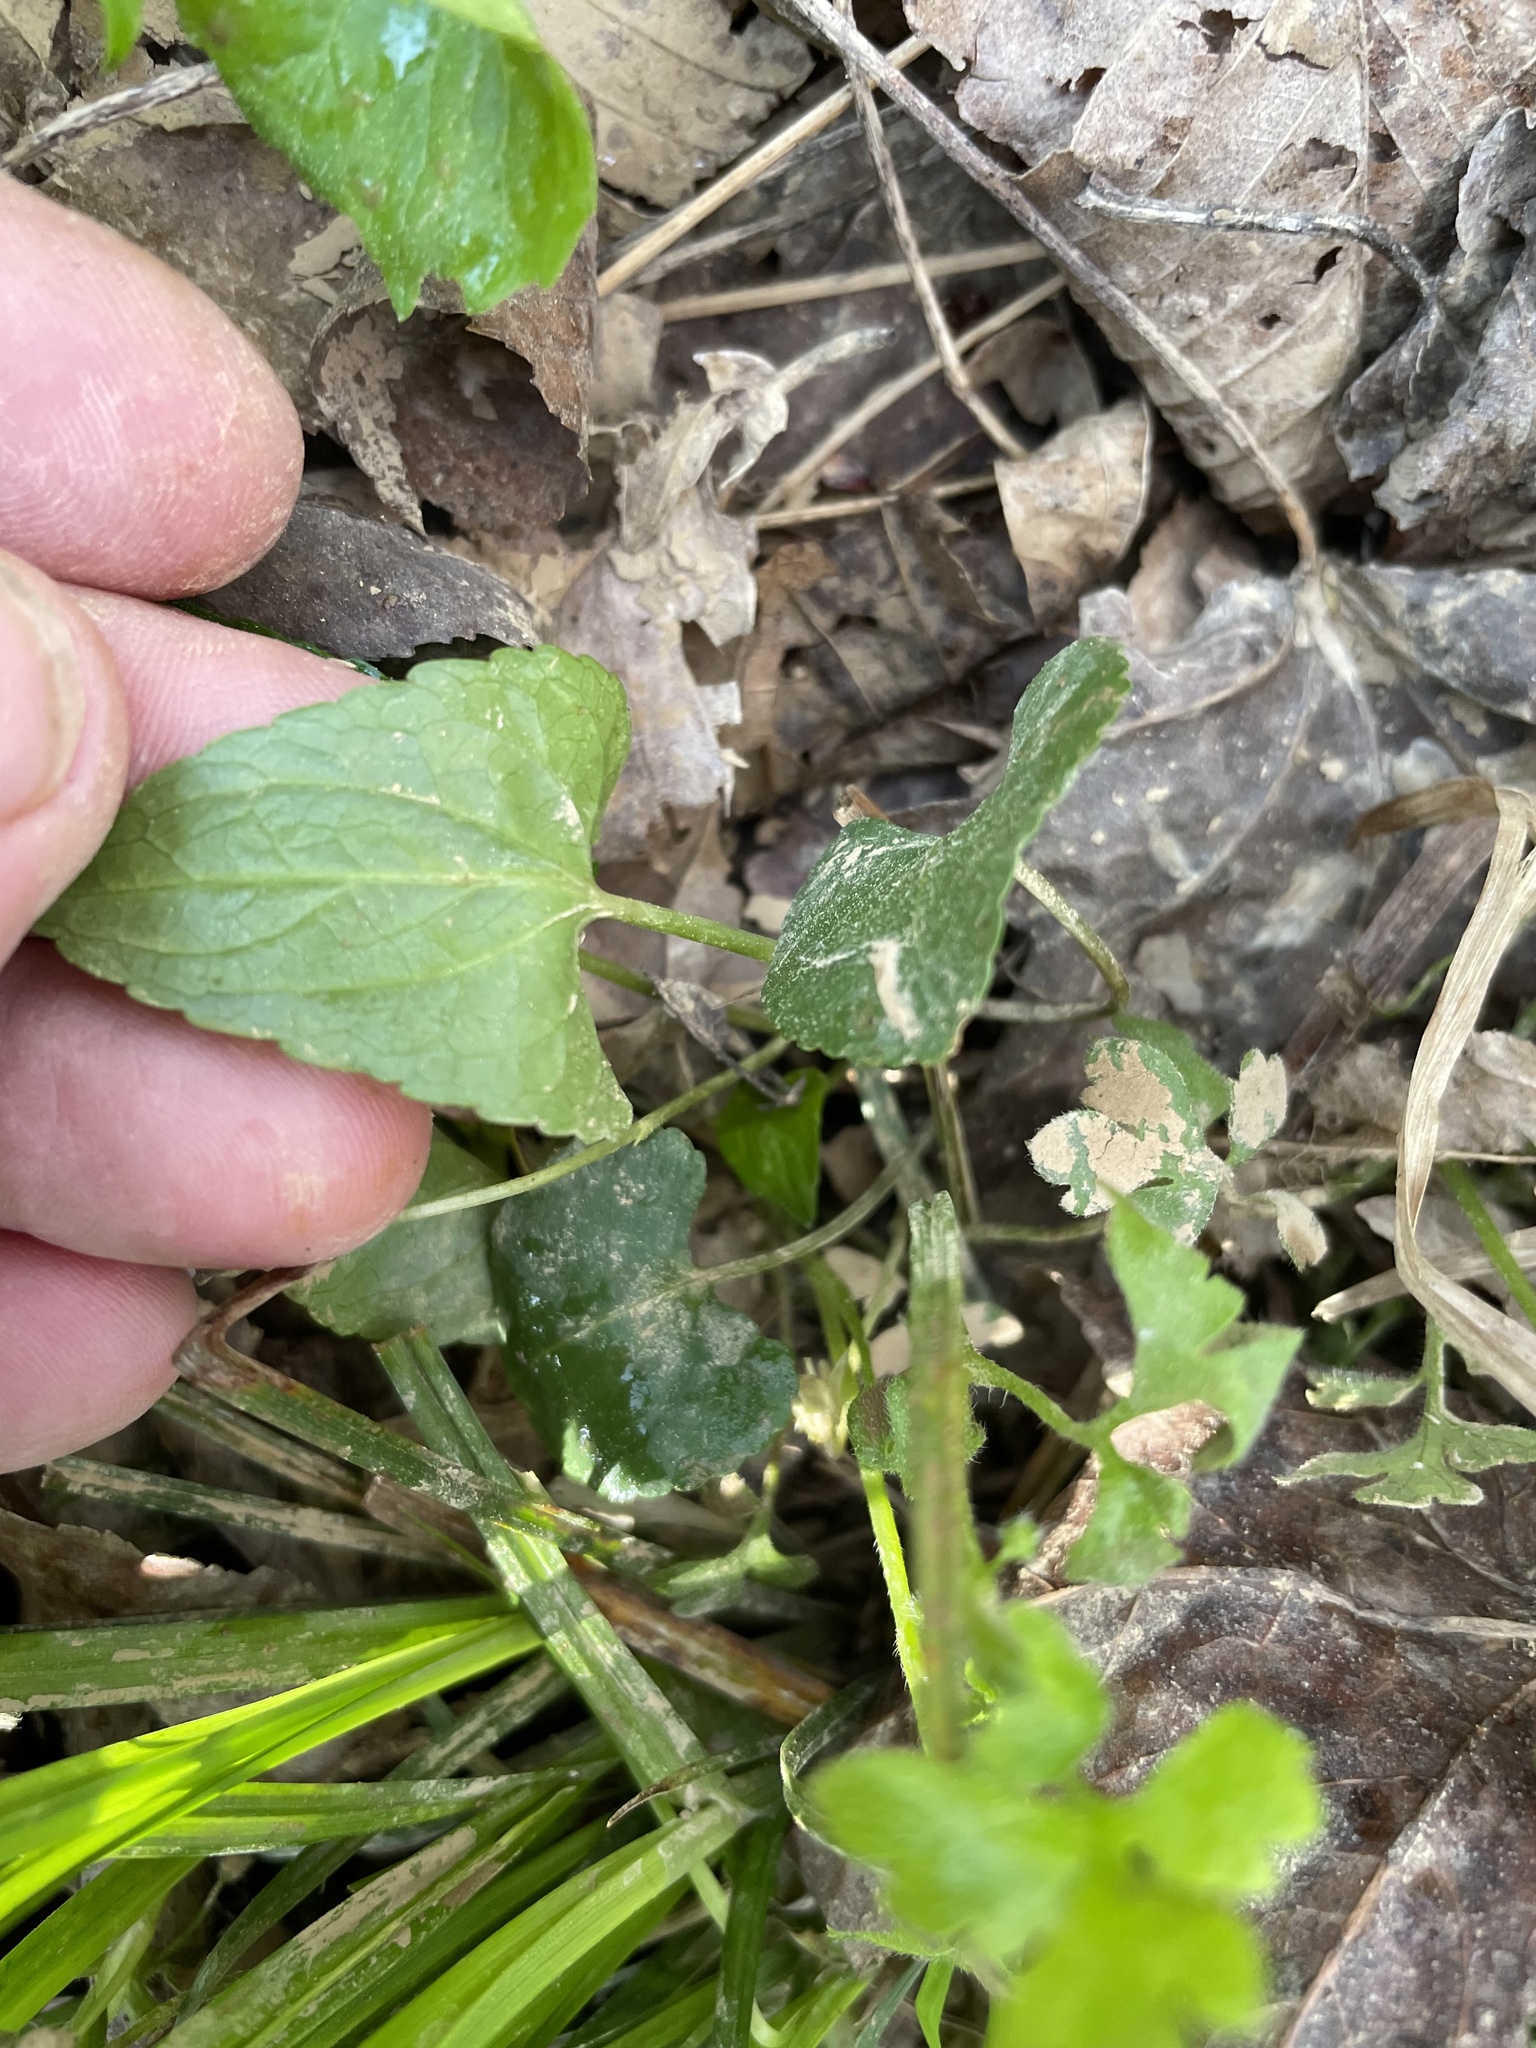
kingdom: Plantae
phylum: Tracheophyta
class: Magnoliopsida
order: Malpighiales
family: Violaceae
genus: Viola
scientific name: Viola sororia
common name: Dooryard violet
